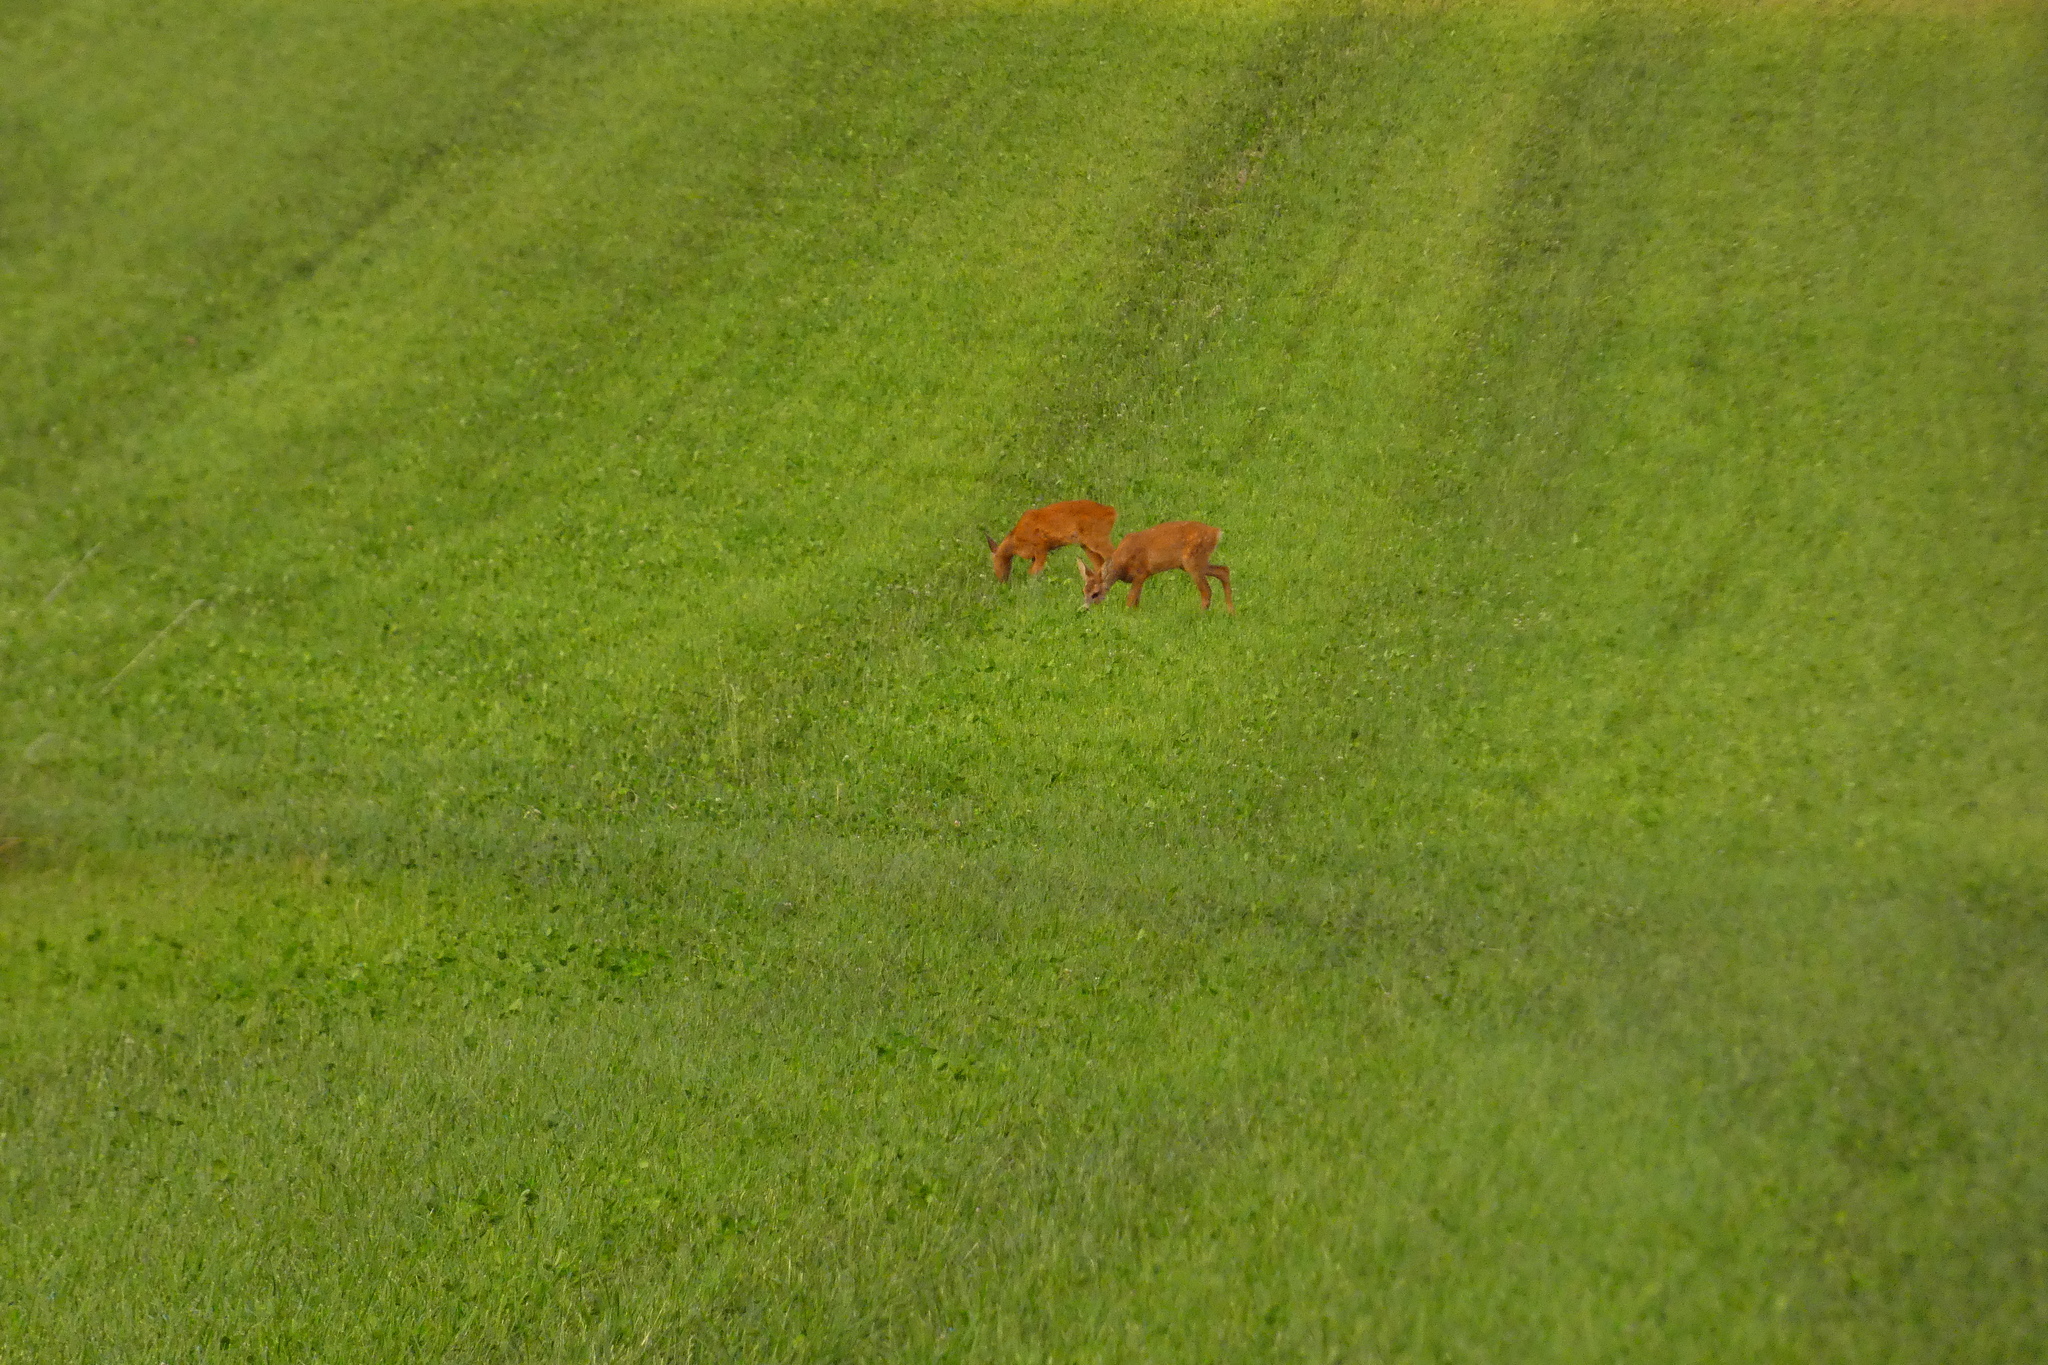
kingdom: Animalia
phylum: Chordata
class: Mammalia
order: Artiodactyla
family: Cervidae
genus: Capreolus
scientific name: Capreolus capreolus
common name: Western roe deer
